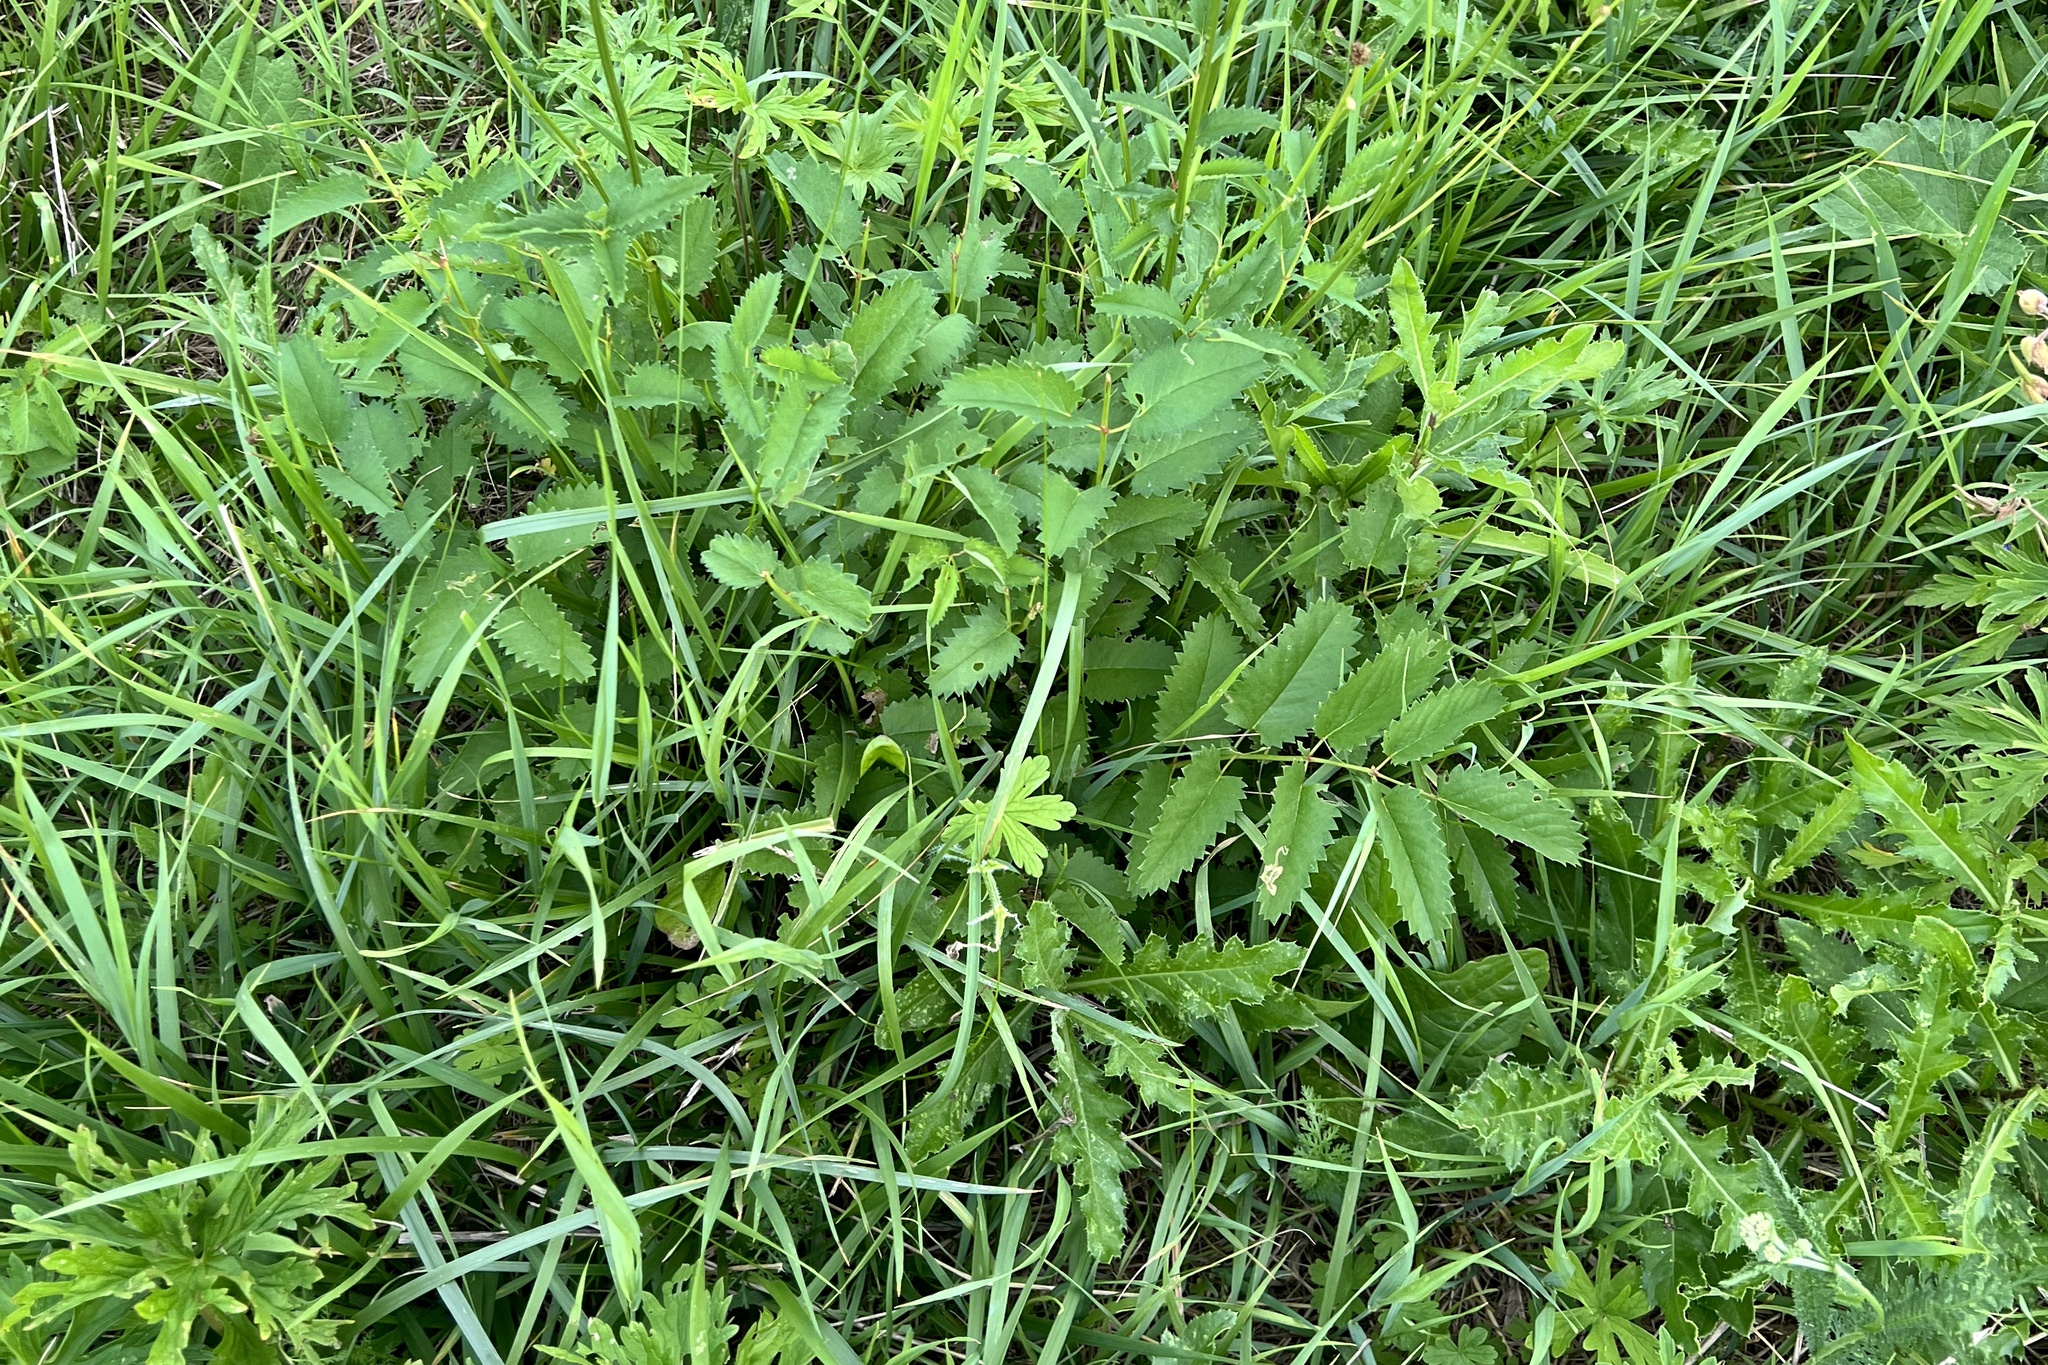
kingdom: Plantae
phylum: Tracheophyta
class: Magnoliopsida
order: Rosales
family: Rosaceae
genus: Sanguisorba
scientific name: Sanguisorba officinalis
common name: Great burnet
